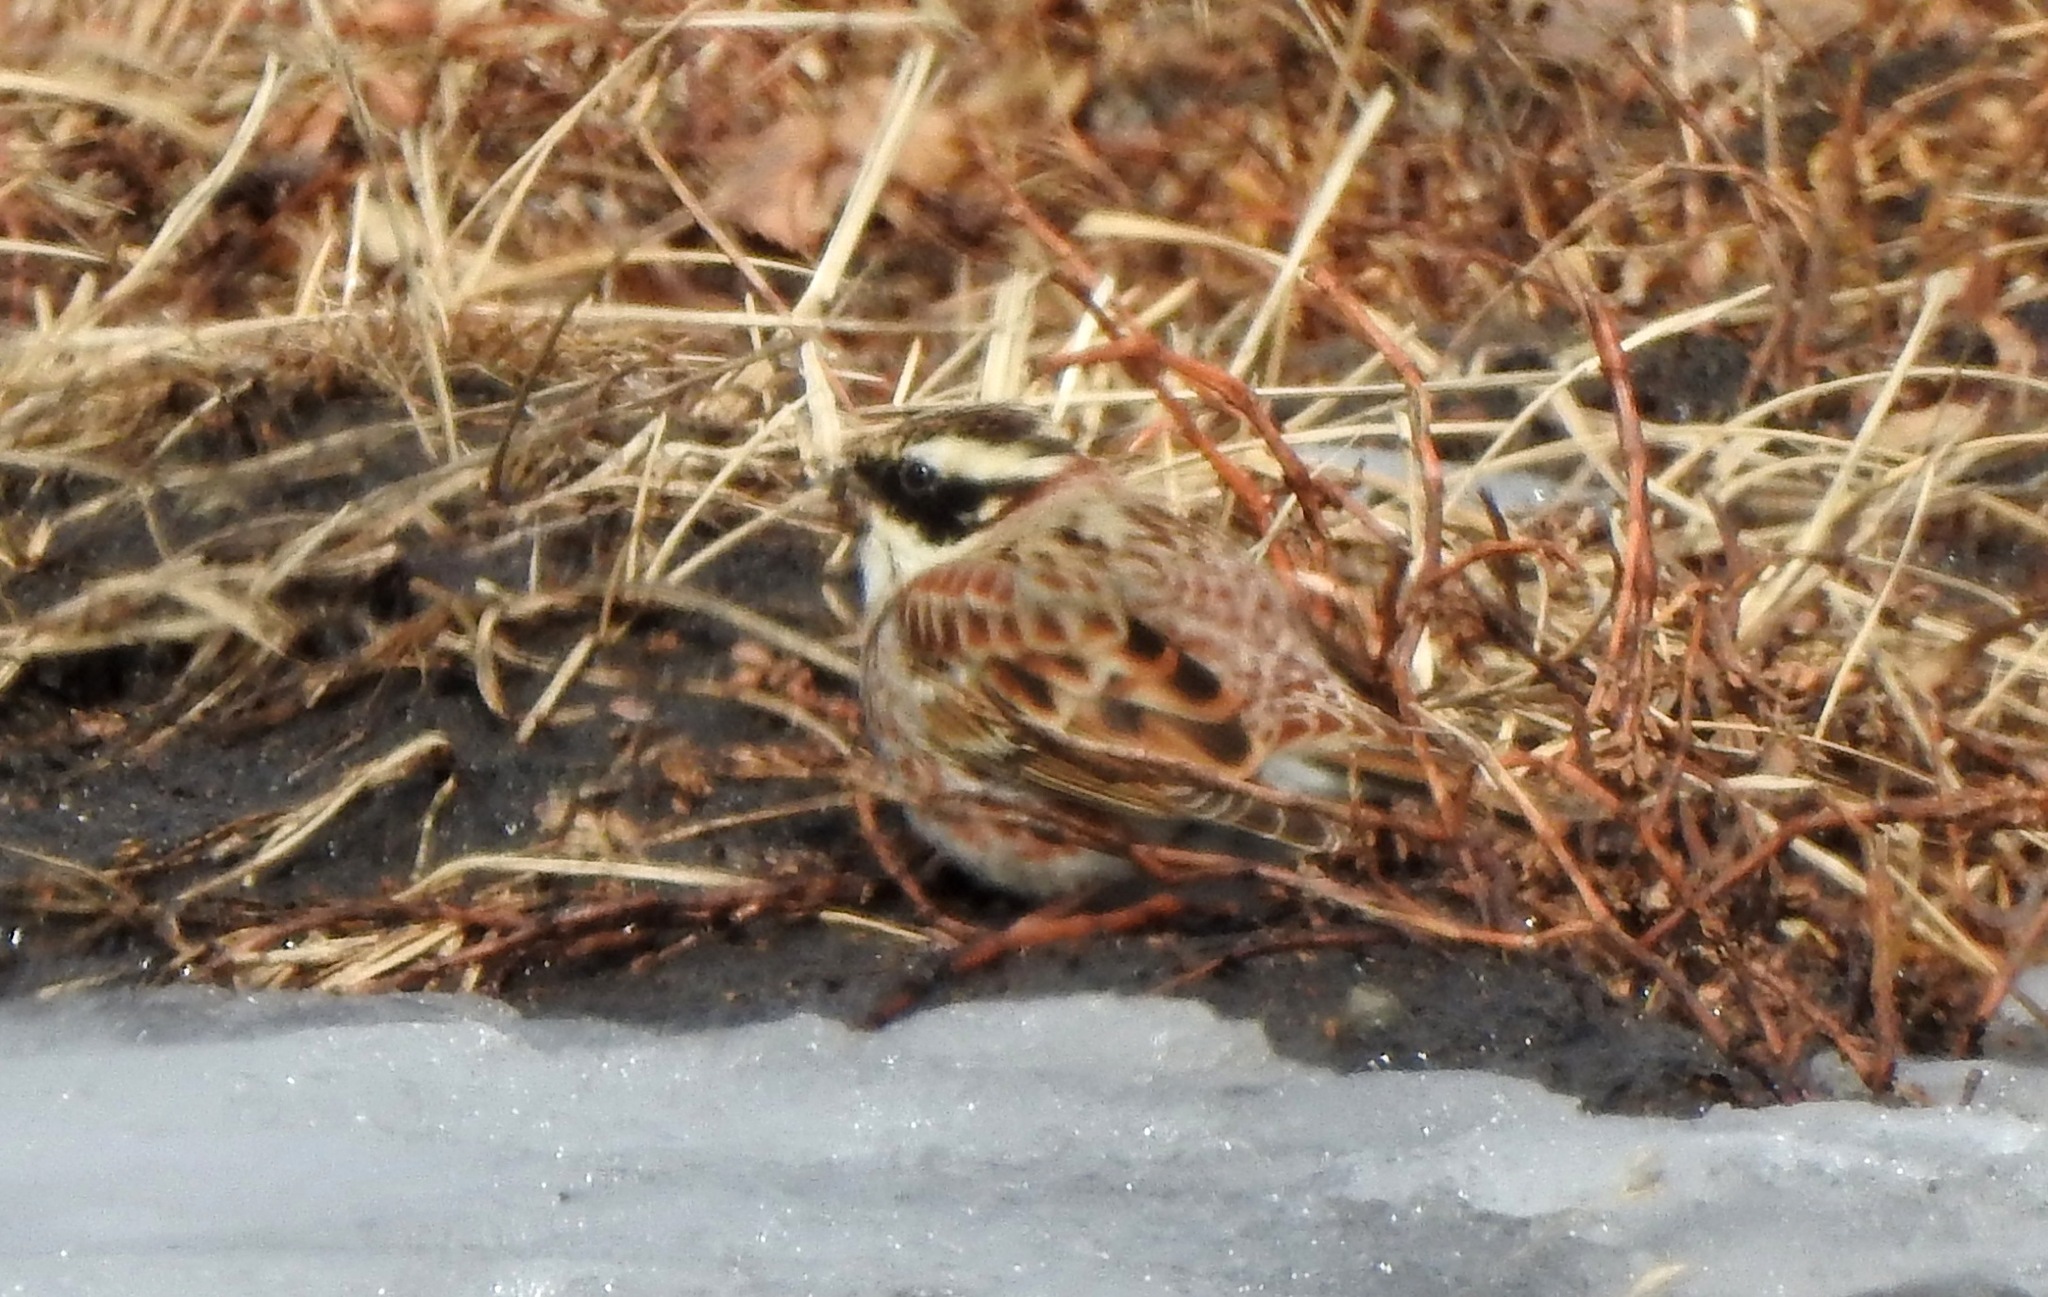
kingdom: Animalia
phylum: Chordata
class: Aves
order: Passeriformes
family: Emberizidae
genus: Emberiza
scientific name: Emberiza rustica
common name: Rustic bunting
